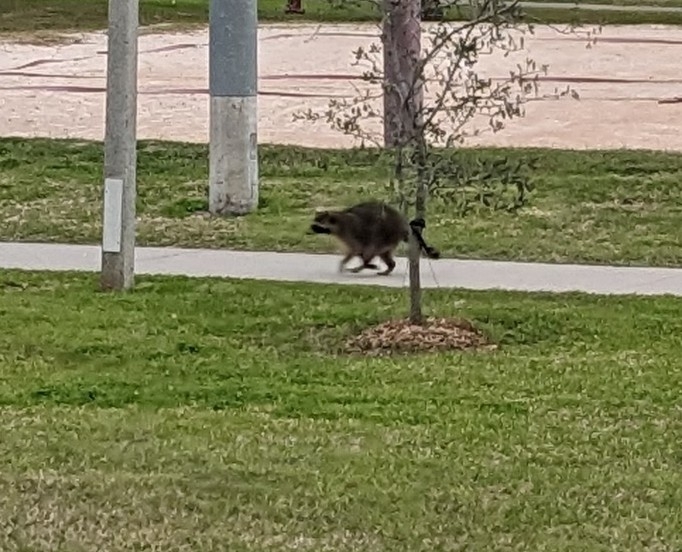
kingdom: Animalia
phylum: Chordata
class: Mammalia
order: Carnivora
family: Procyonidae
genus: Procyon
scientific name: Procyon lotor
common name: Raccoon
